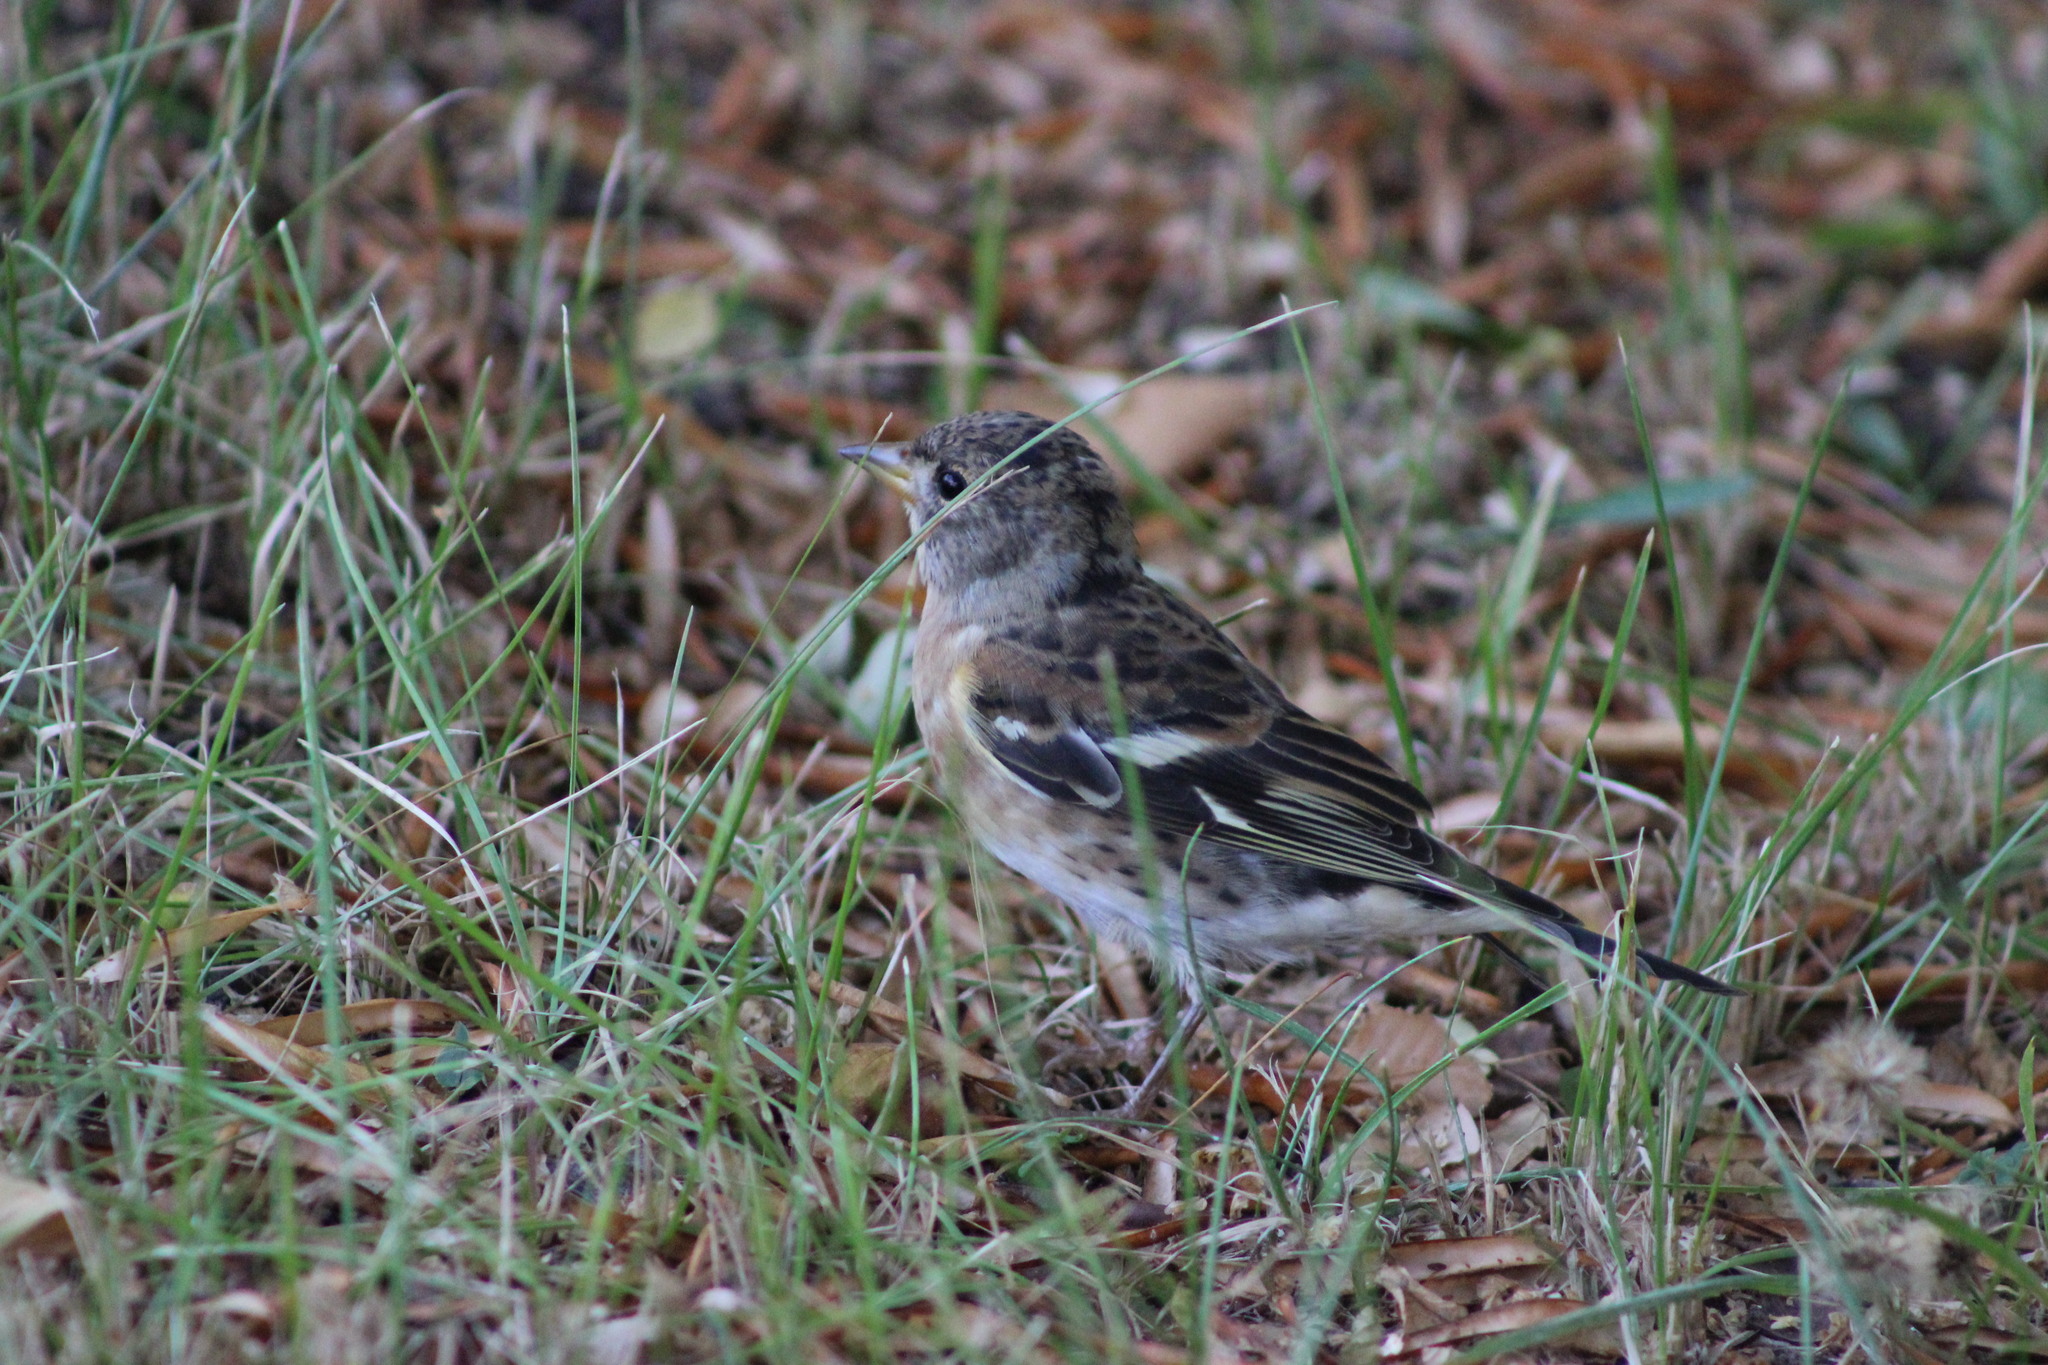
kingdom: Animalia
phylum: Chordata
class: Aves
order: Passeriformes
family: Fringillidae
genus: Fringilla
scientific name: Fringilla montifringilla
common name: Brambling
